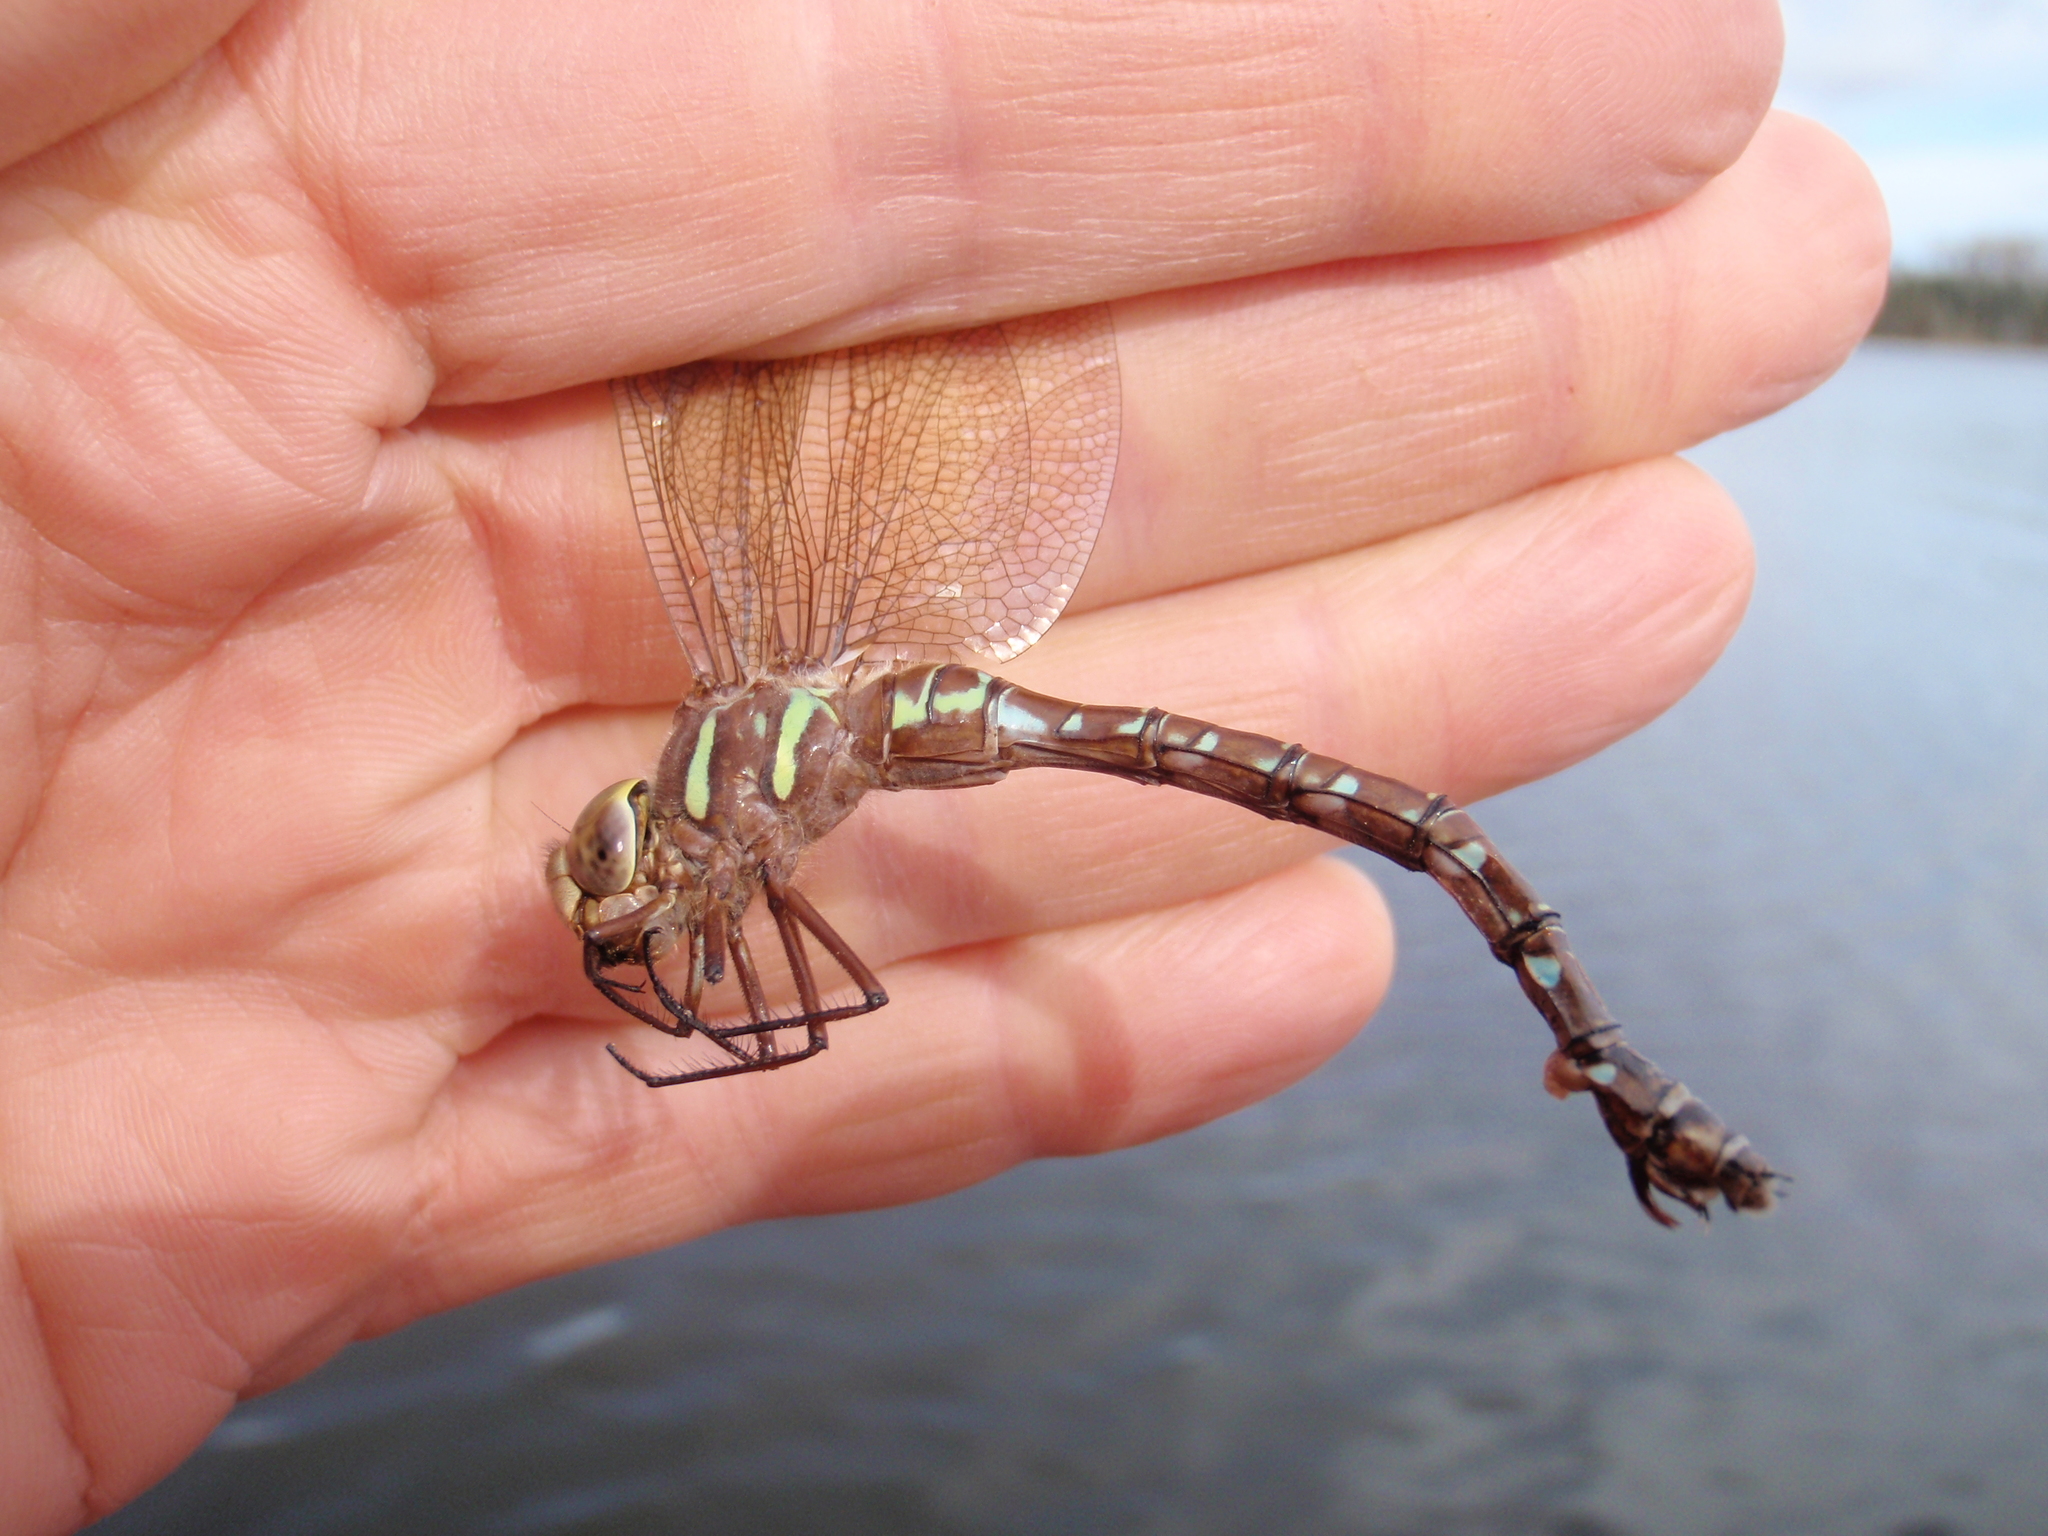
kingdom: Animalia
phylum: Arthropoda
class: Insecta
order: Odonata
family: Aeshnidae
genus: Aeshna
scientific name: Aeshna umbrosa
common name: Shadow darner
